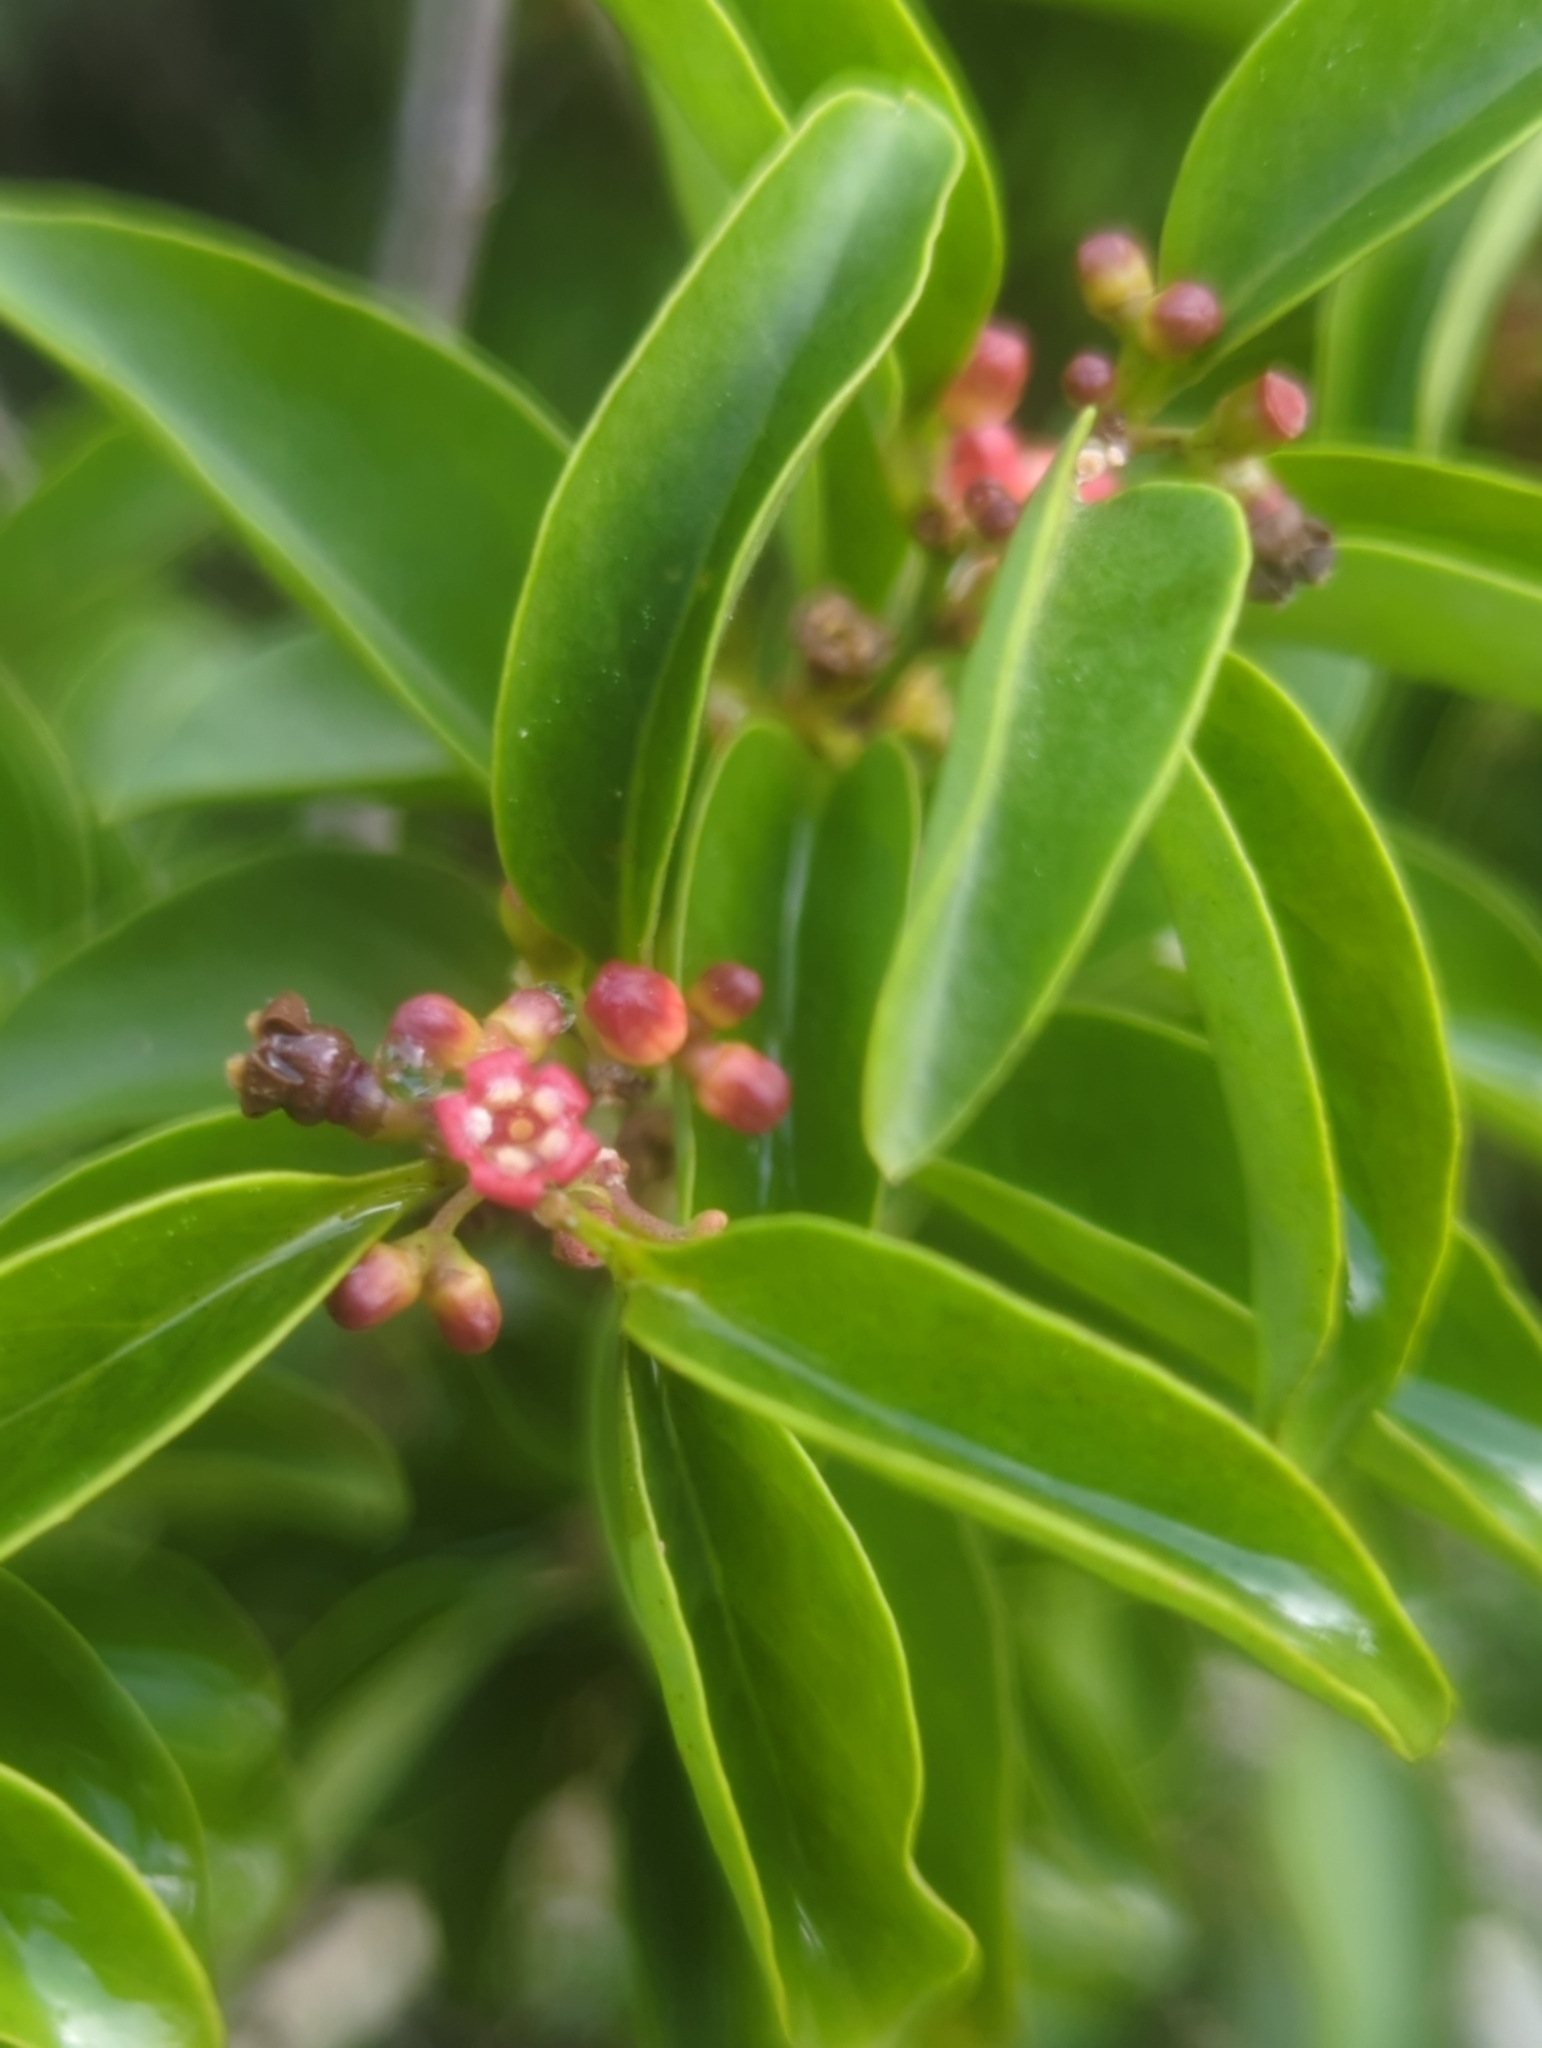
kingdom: Plantae
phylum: Tracheophyta
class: Magnoliopsida
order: Santalales
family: Schoepfiaceae
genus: Schoepfia
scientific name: Schoepfia schreberi
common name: Gulf graytwig
